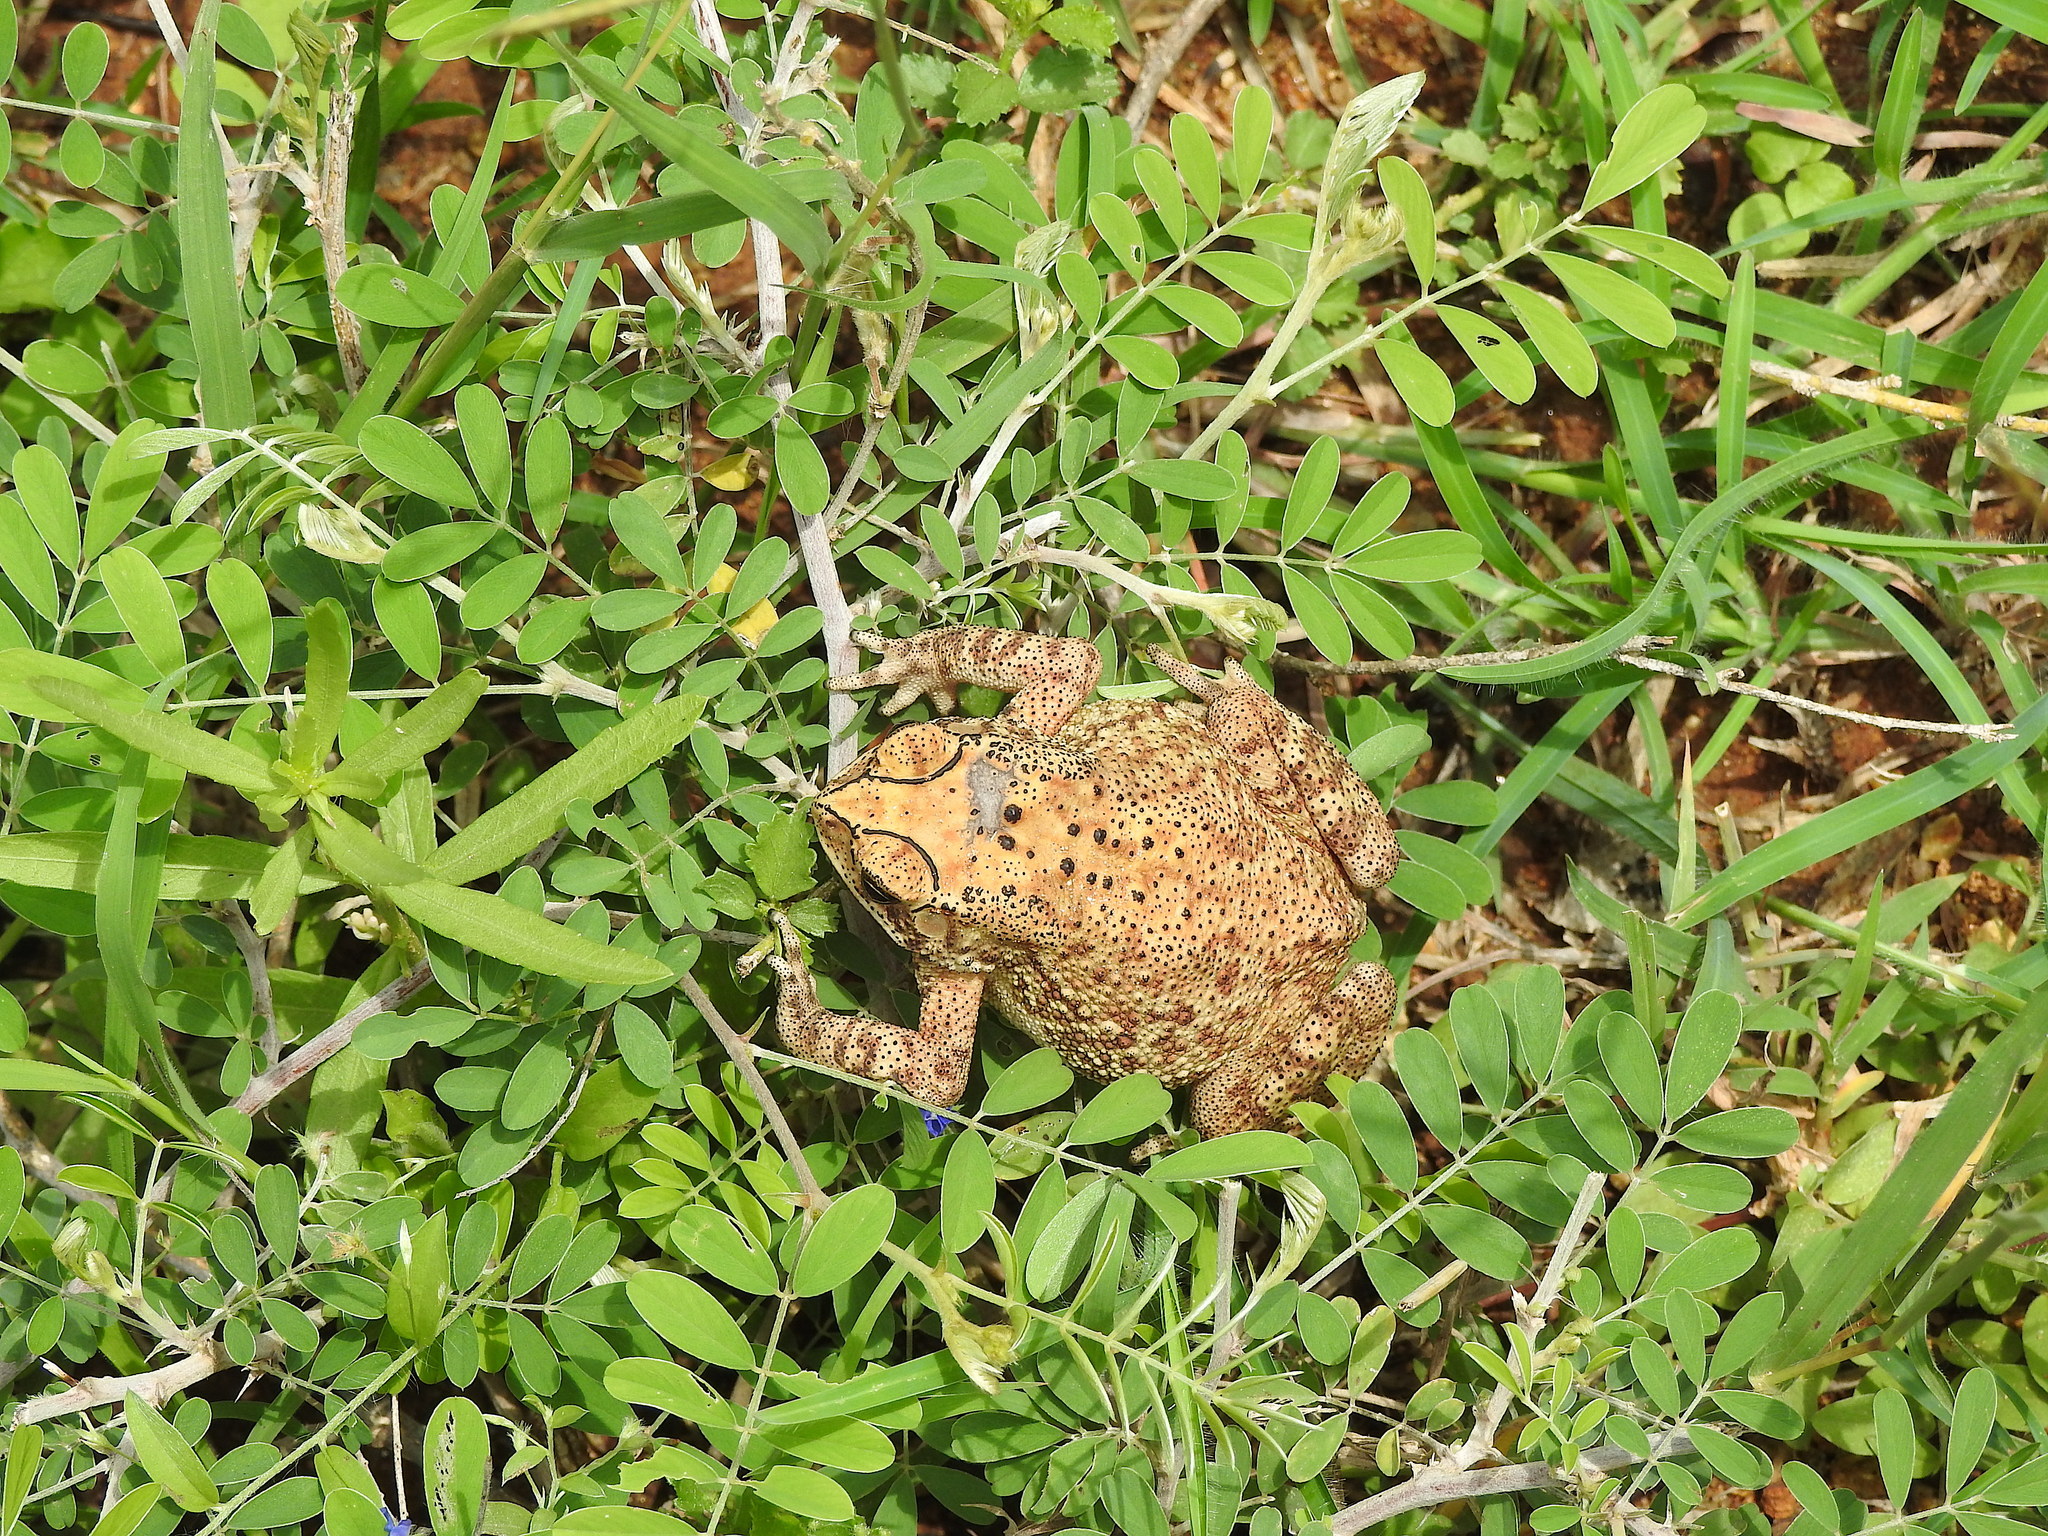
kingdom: Animalia
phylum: Chordata
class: Amphibia
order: Anura
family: Bufonidae
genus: Duttaphrynus
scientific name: Duttaphrynus melanostictus
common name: Common sunda toad
